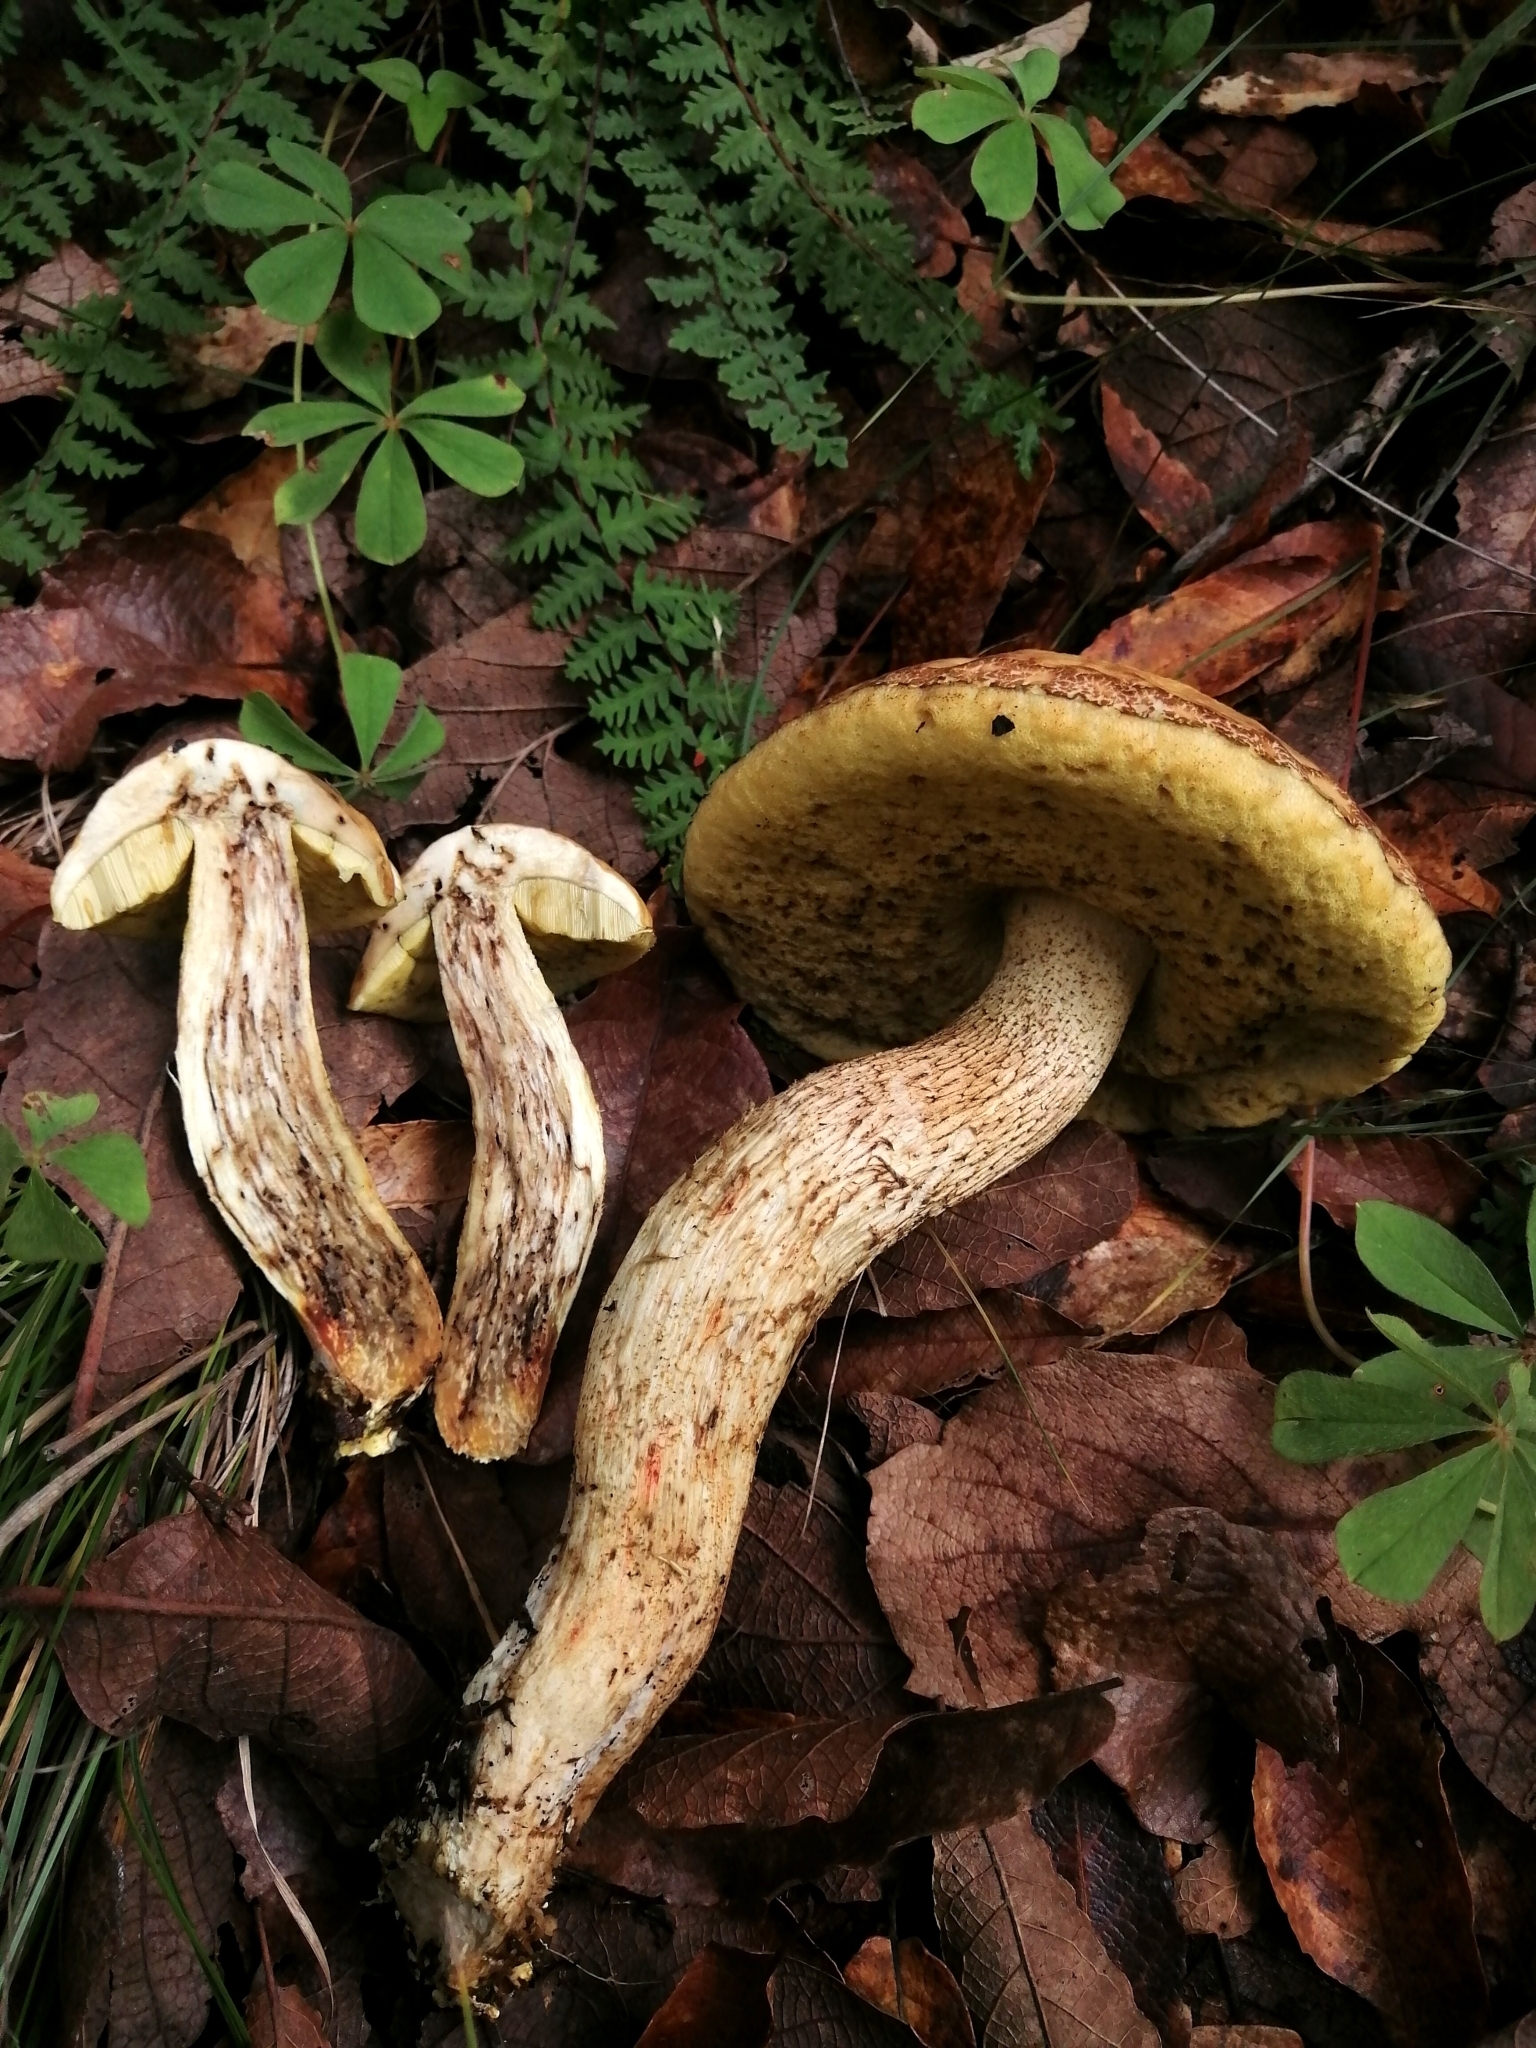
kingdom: Fungi
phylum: Basidiomycota
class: Agaricomycetes
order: Boletales
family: Boletaceae
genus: Leccinellum
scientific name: Leccinellum rugosiceps
